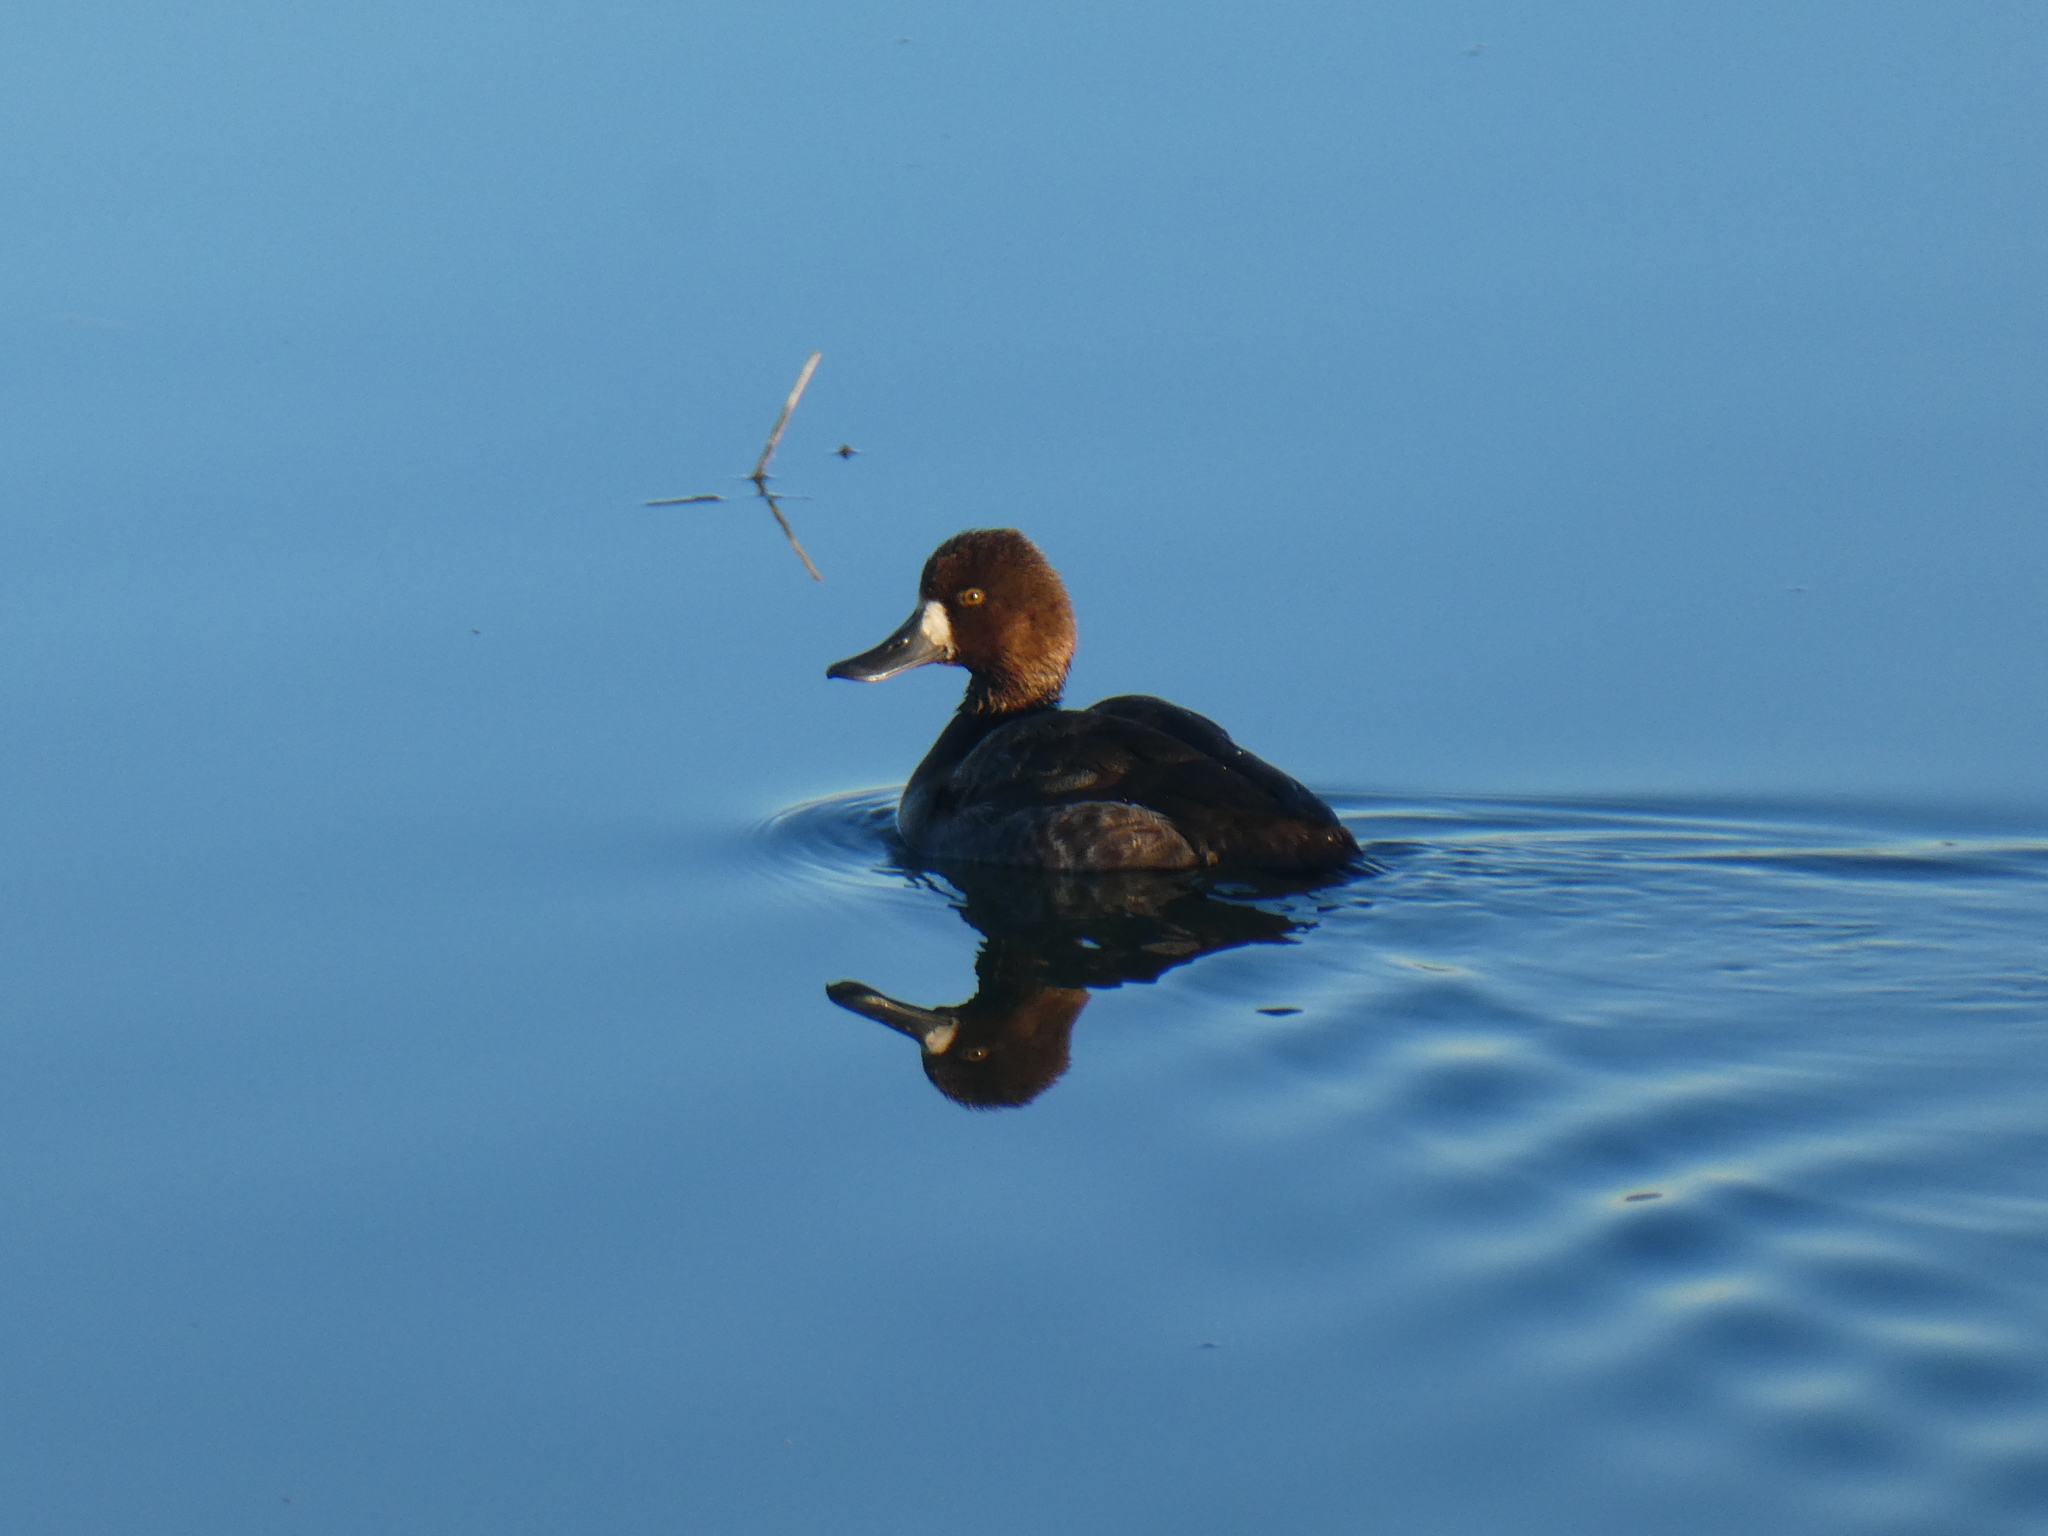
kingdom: Animalia
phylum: Chordata
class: Aves
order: Anseriformes
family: Anatidae
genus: Aythya
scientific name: Aythya affinis
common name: Lesser scaup
